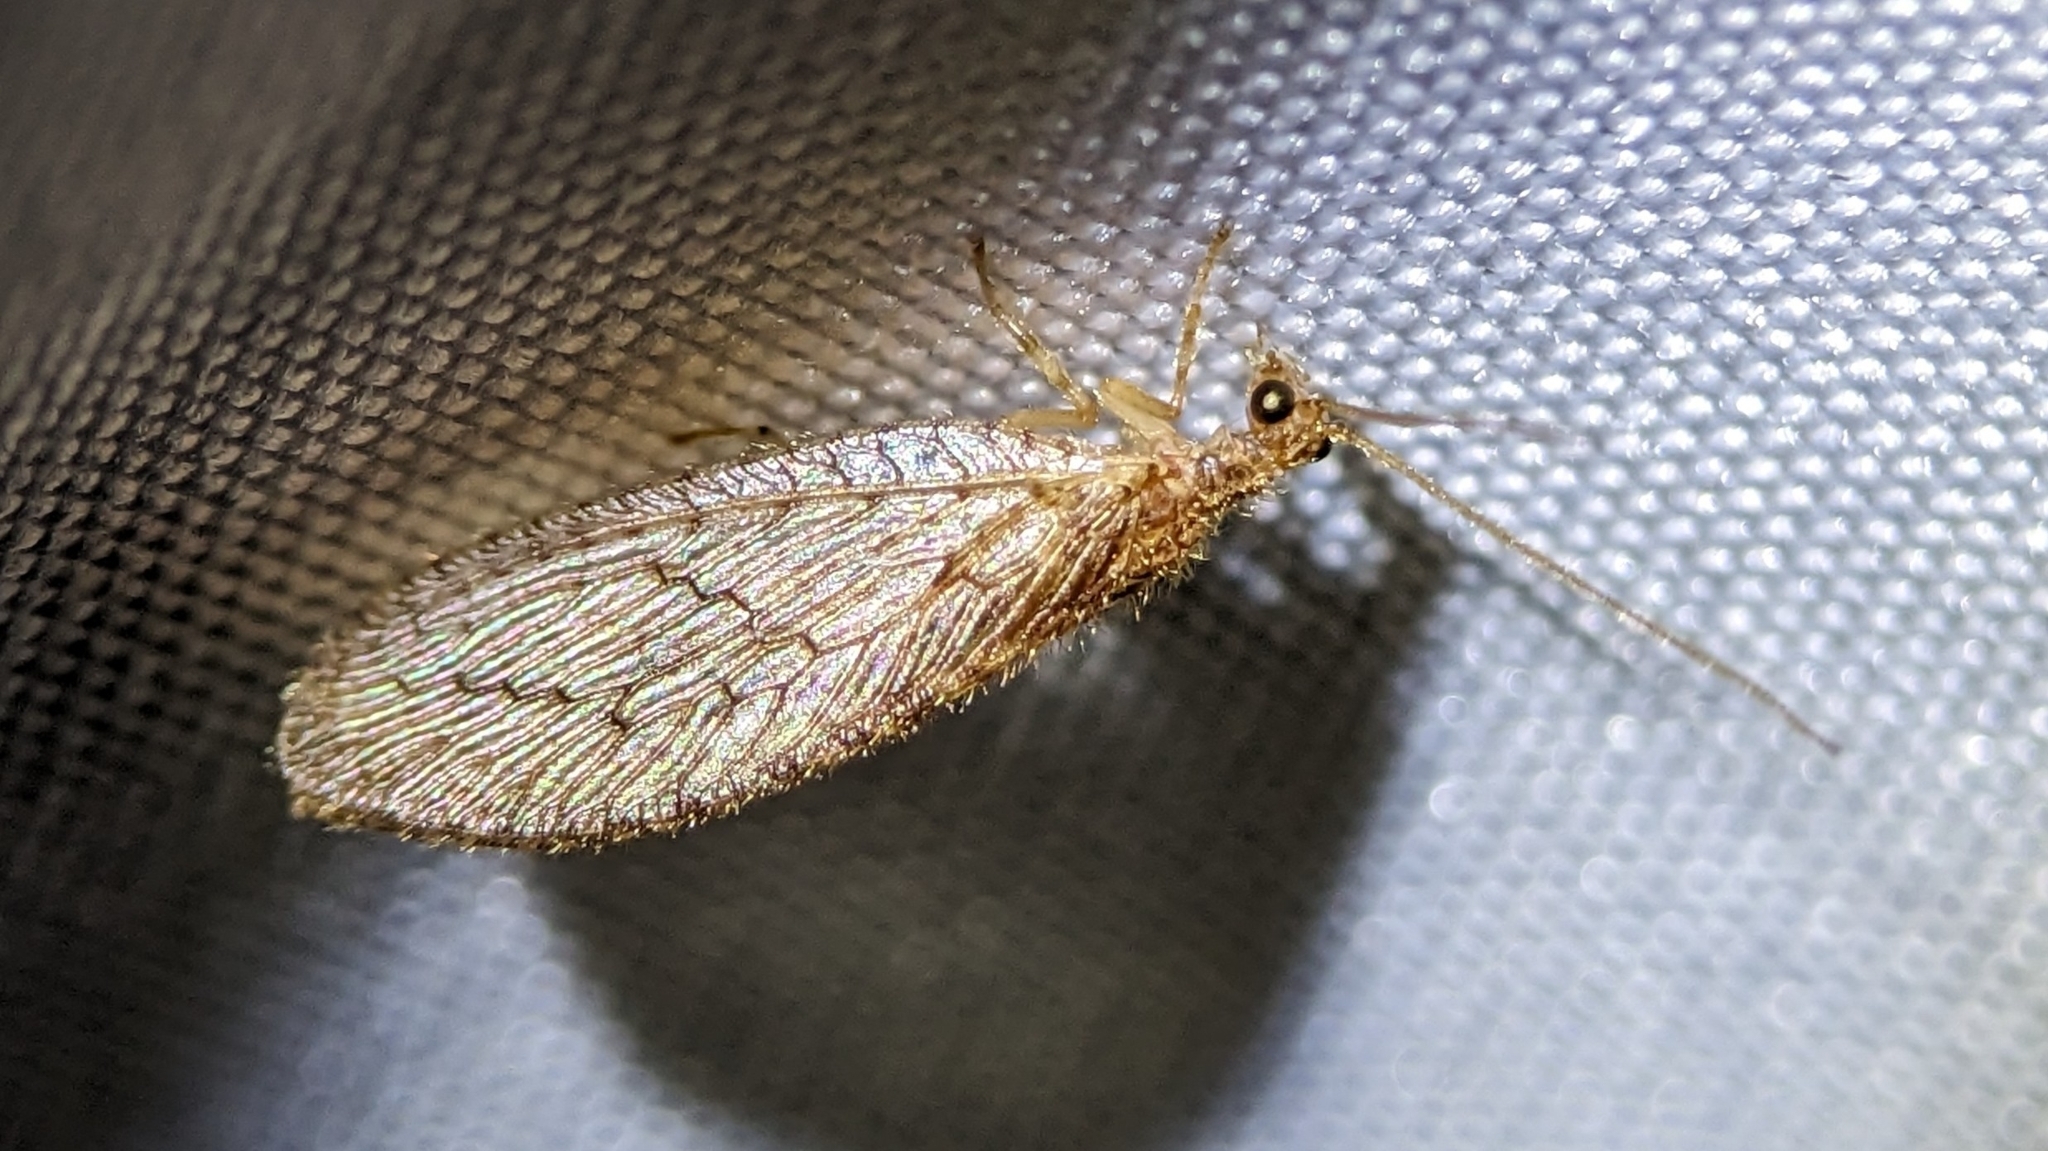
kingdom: Animalia
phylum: Arthropoda
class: Insecta
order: Neuroptera
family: Hemerobiidae
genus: Micromus
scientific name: Micromus posticus
